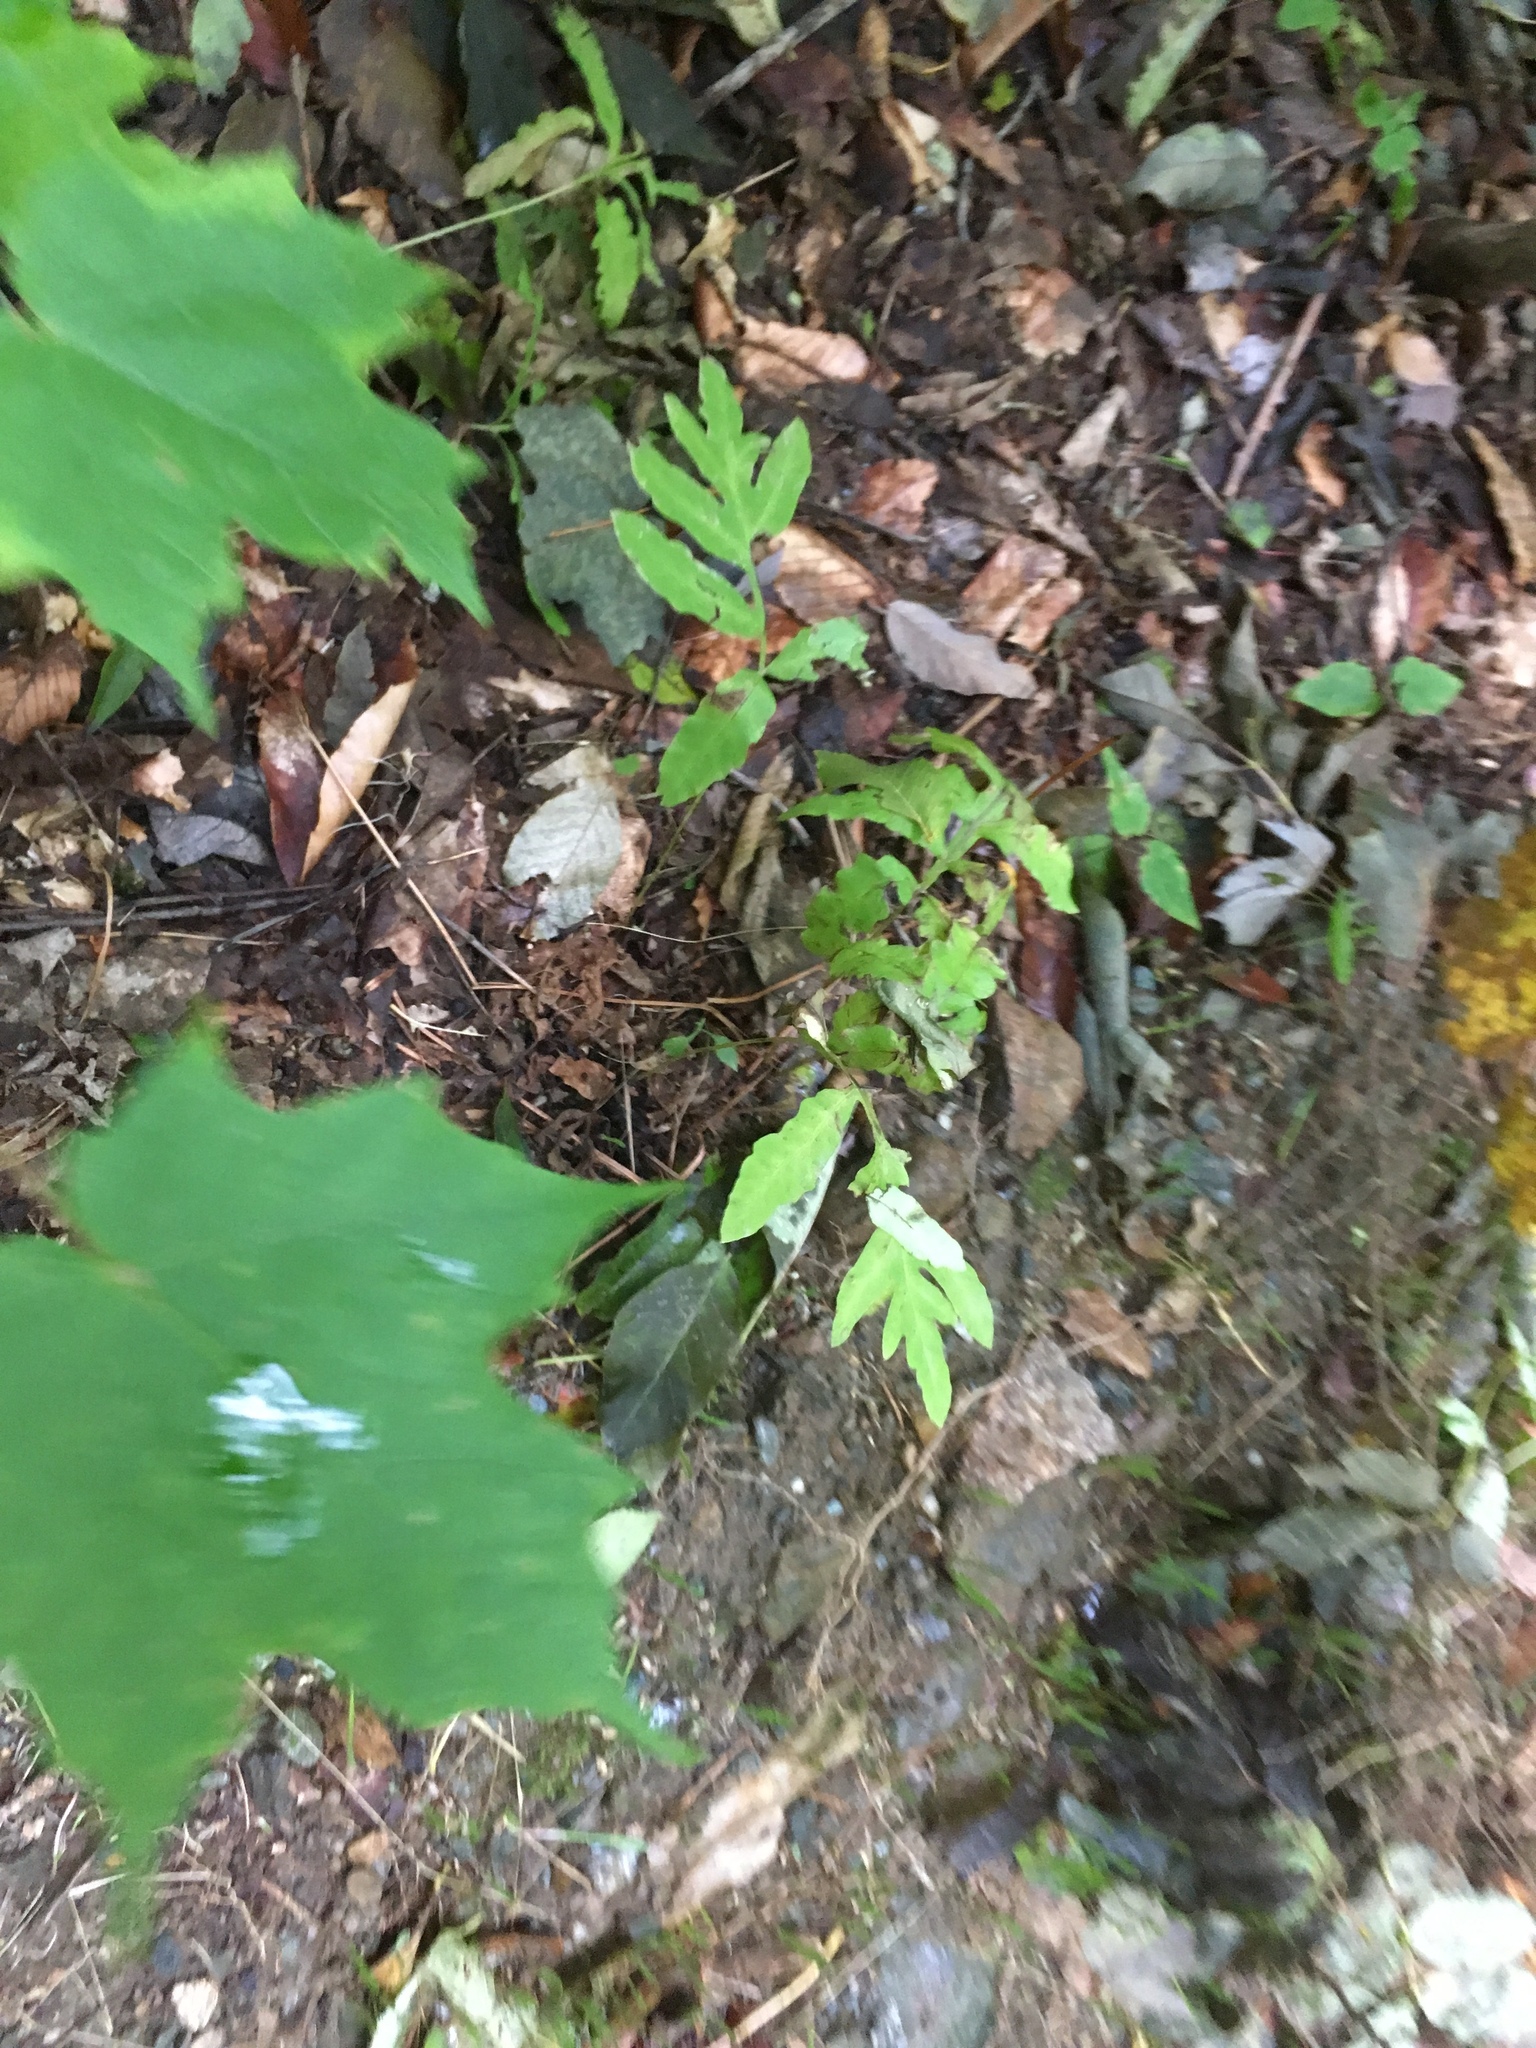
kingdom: Plantae
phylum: Tracheophyta
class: Polypodiopsida
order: Polypodiales
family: Onocleaceae
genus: Onoclea
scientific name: Onoclea sensibilis
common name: Sensitive fern
